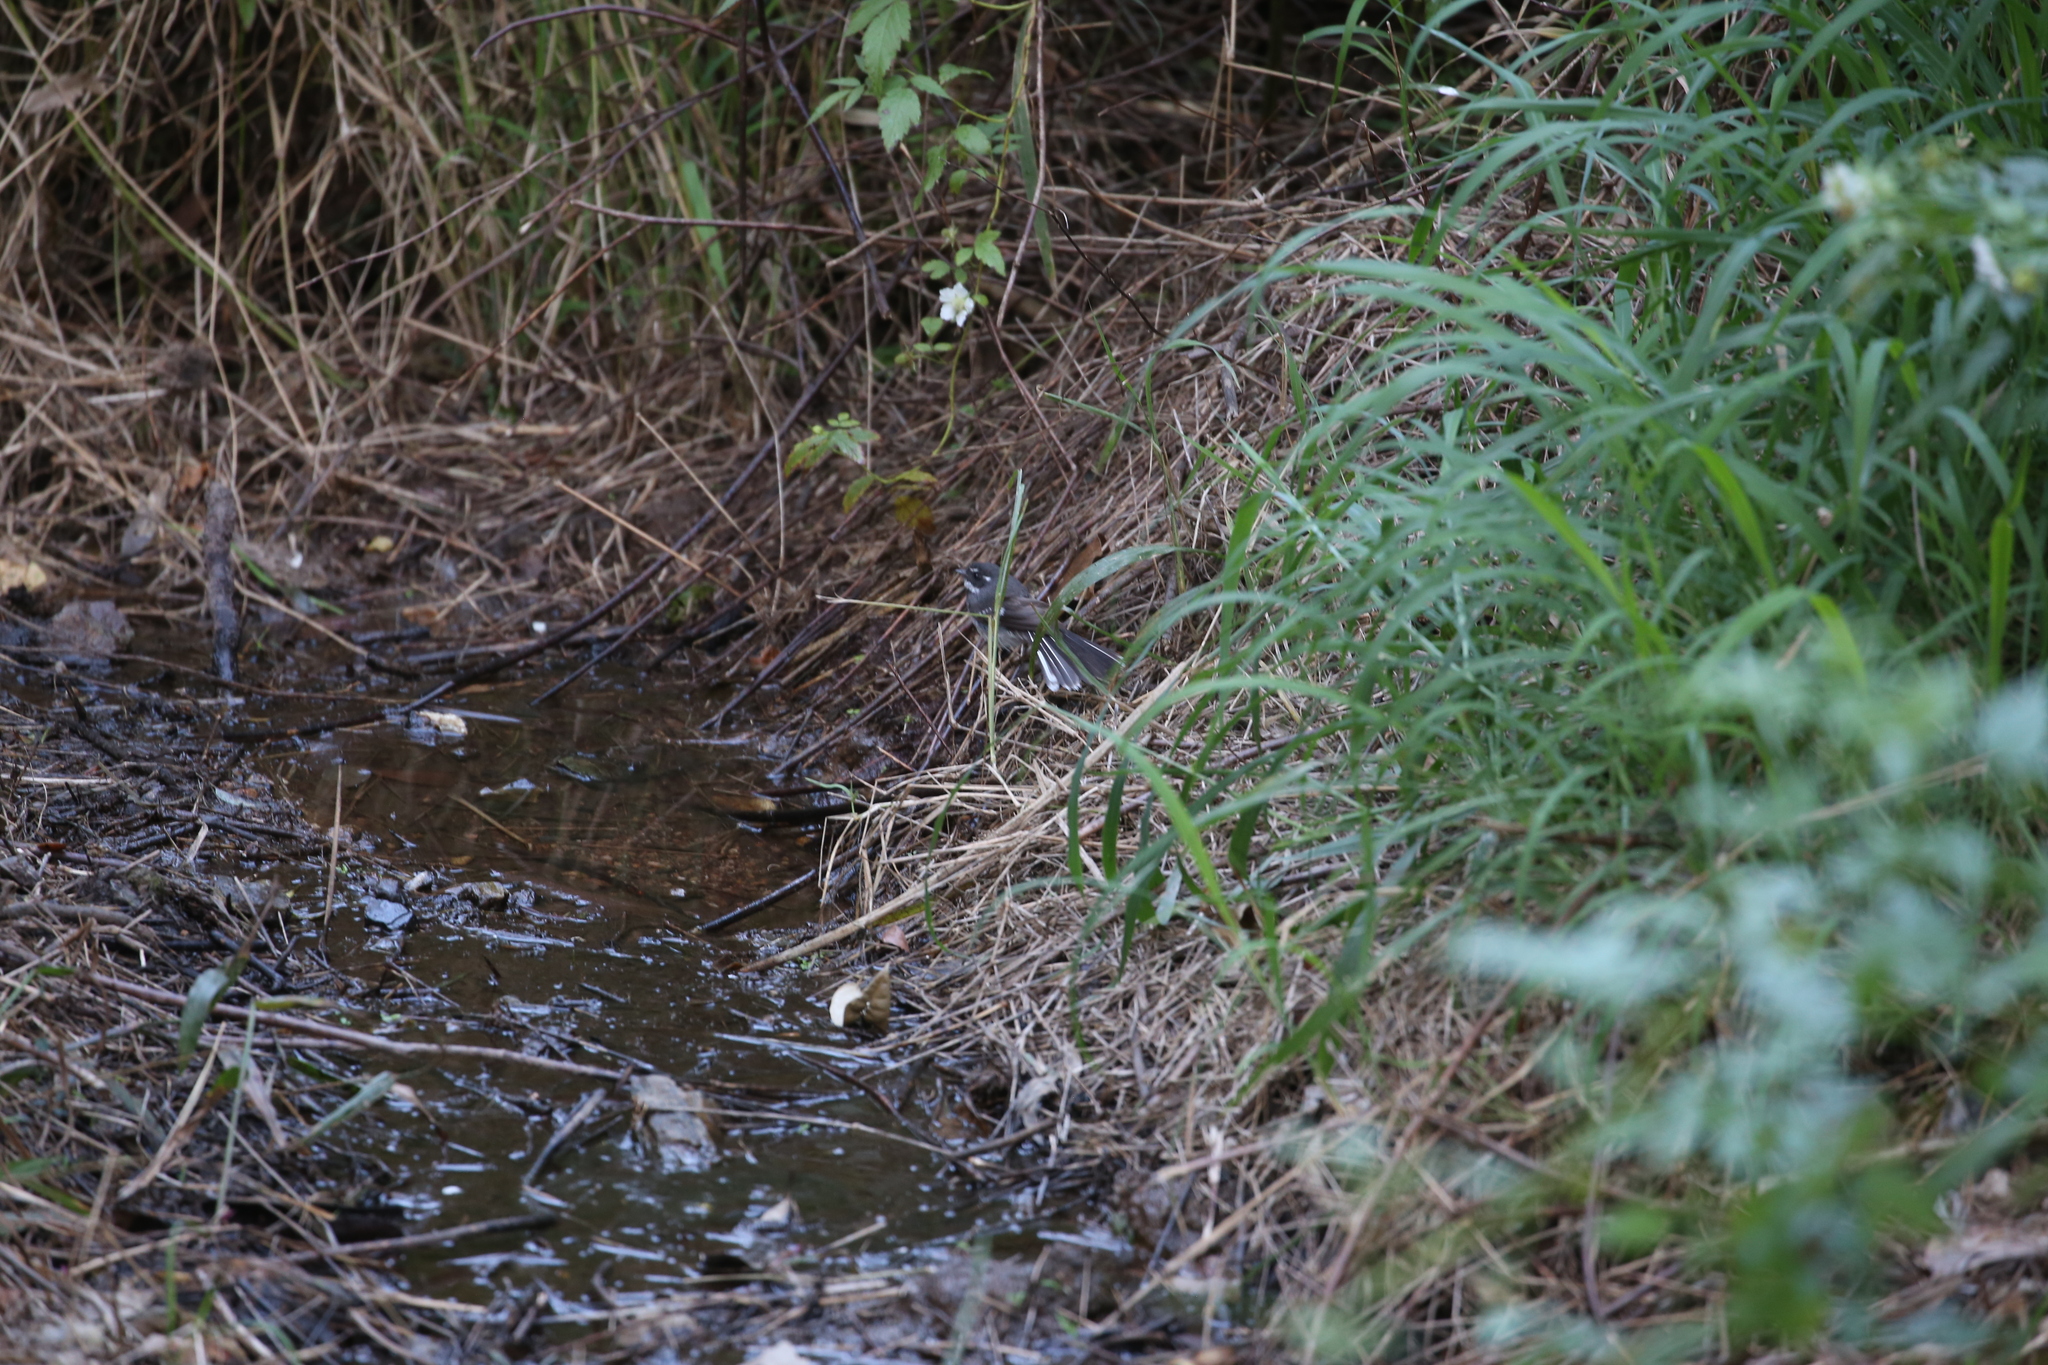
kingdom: Animalia
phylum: Chordata
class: Aves
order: Passeriformes
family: Rhipiduridae
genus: Rhipidura
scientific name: Rhipidura albiscapa
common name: Grey fantail
